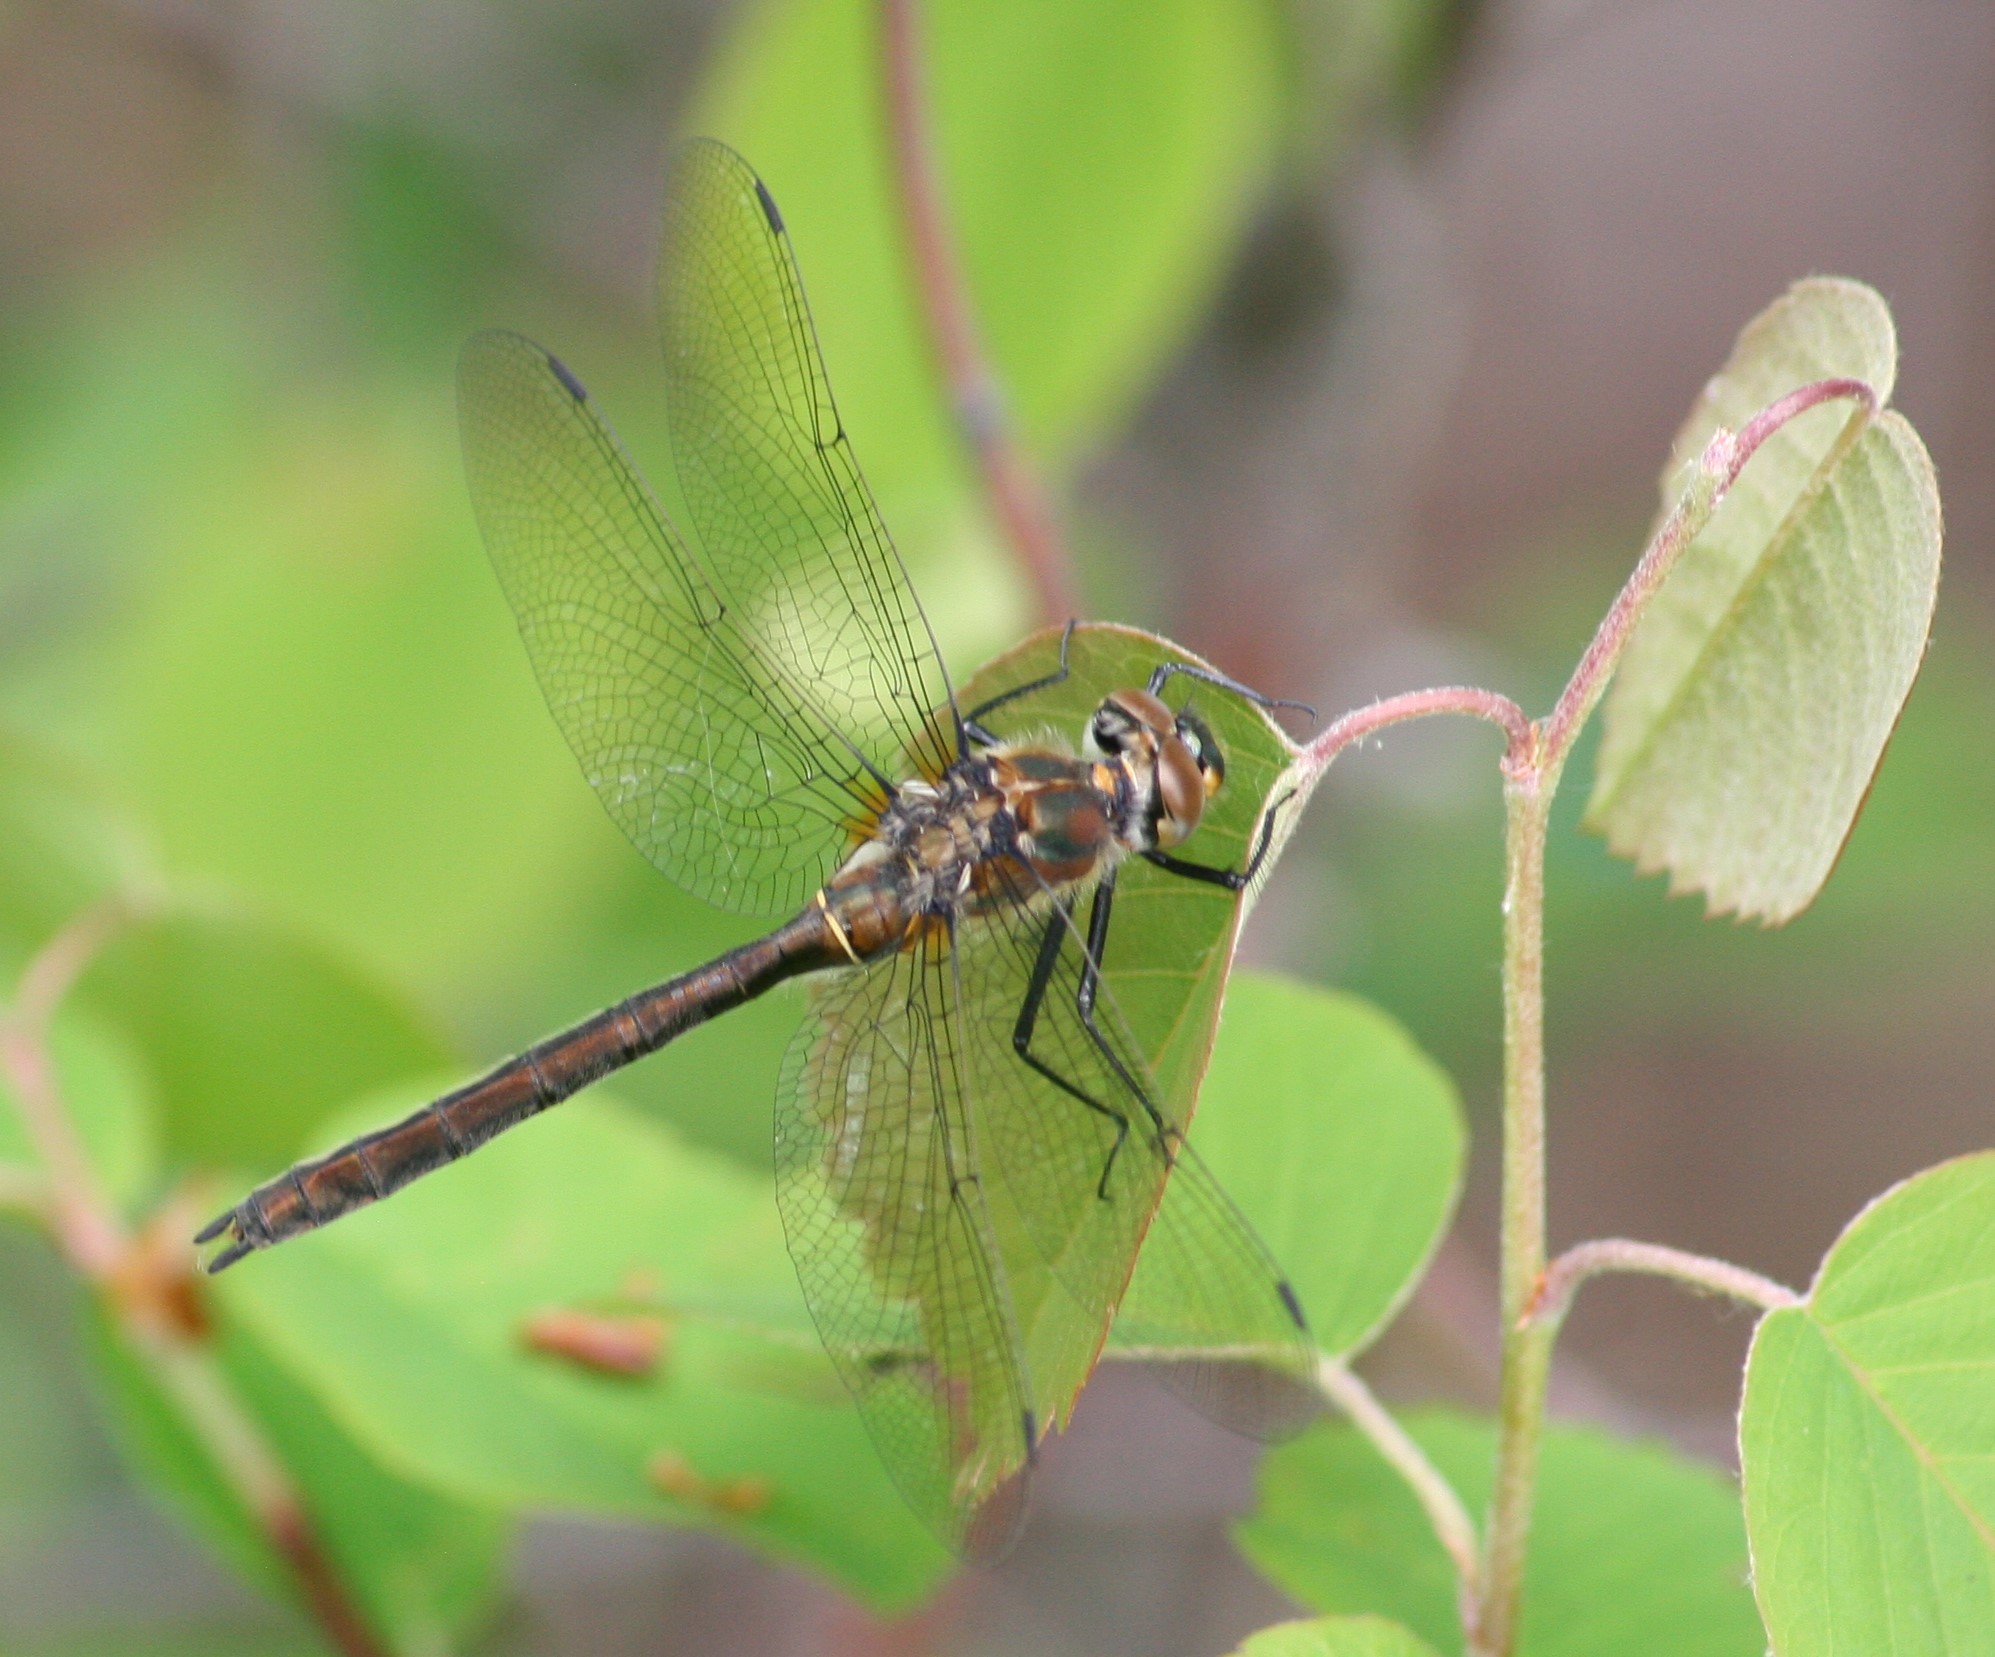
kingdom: Animalia
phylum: Arthropoda
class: Insecta
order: Odonata
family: Corduliidae
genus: Cordulia
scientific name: Cordulia shurtleffii
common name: American emerald
